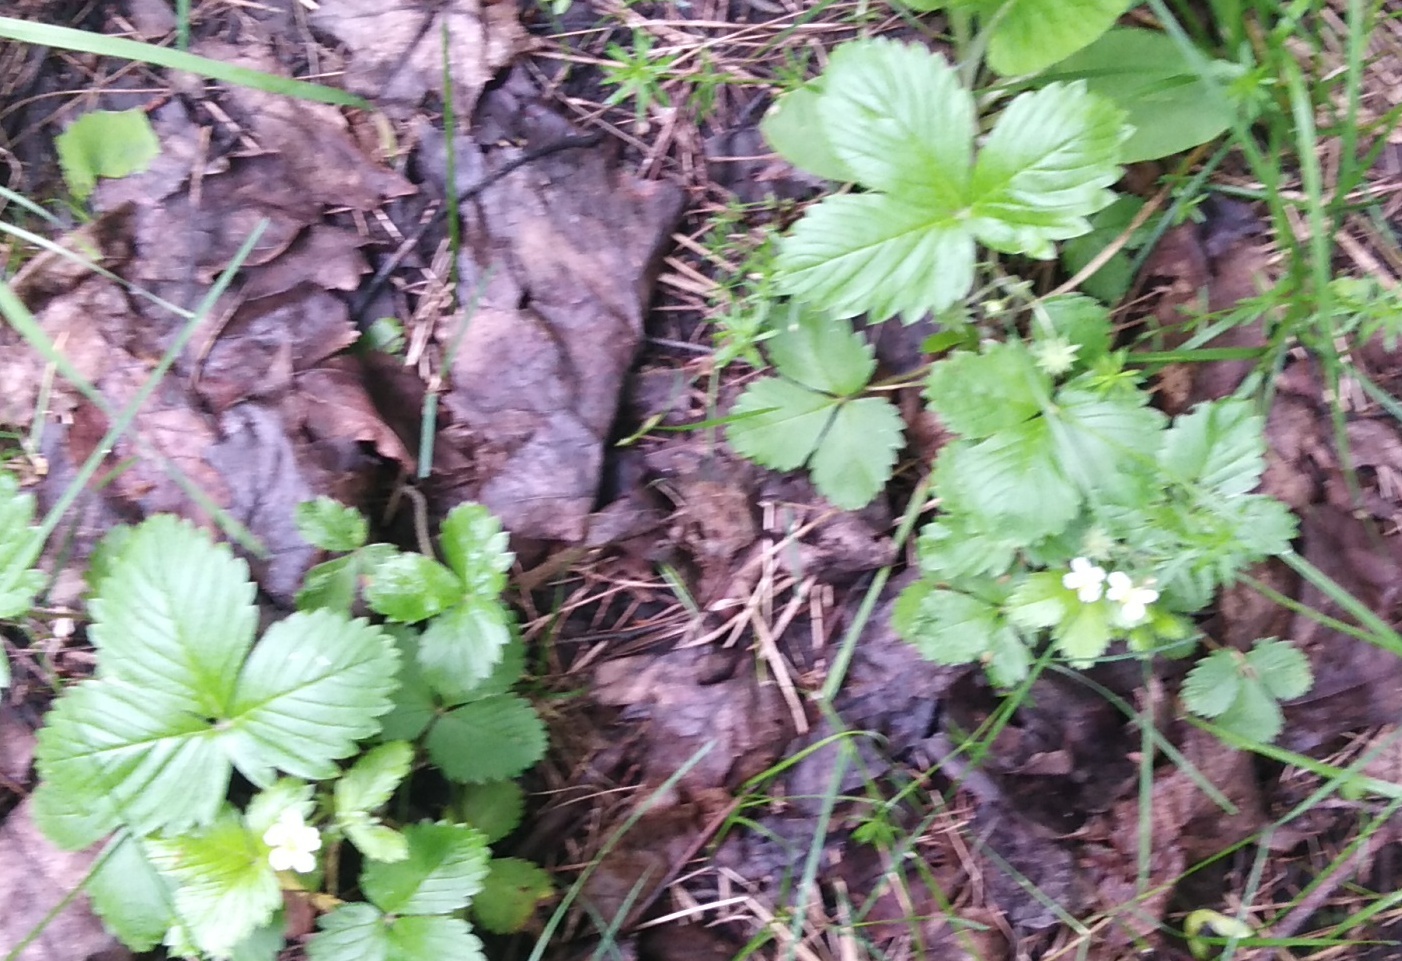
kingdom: Plantae
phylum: Tracheophyta
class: Magnoliopsida
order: Rosales
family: Rosaceae
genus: Fragaria
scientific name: Fragaria vesca
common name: Wild strawberry
